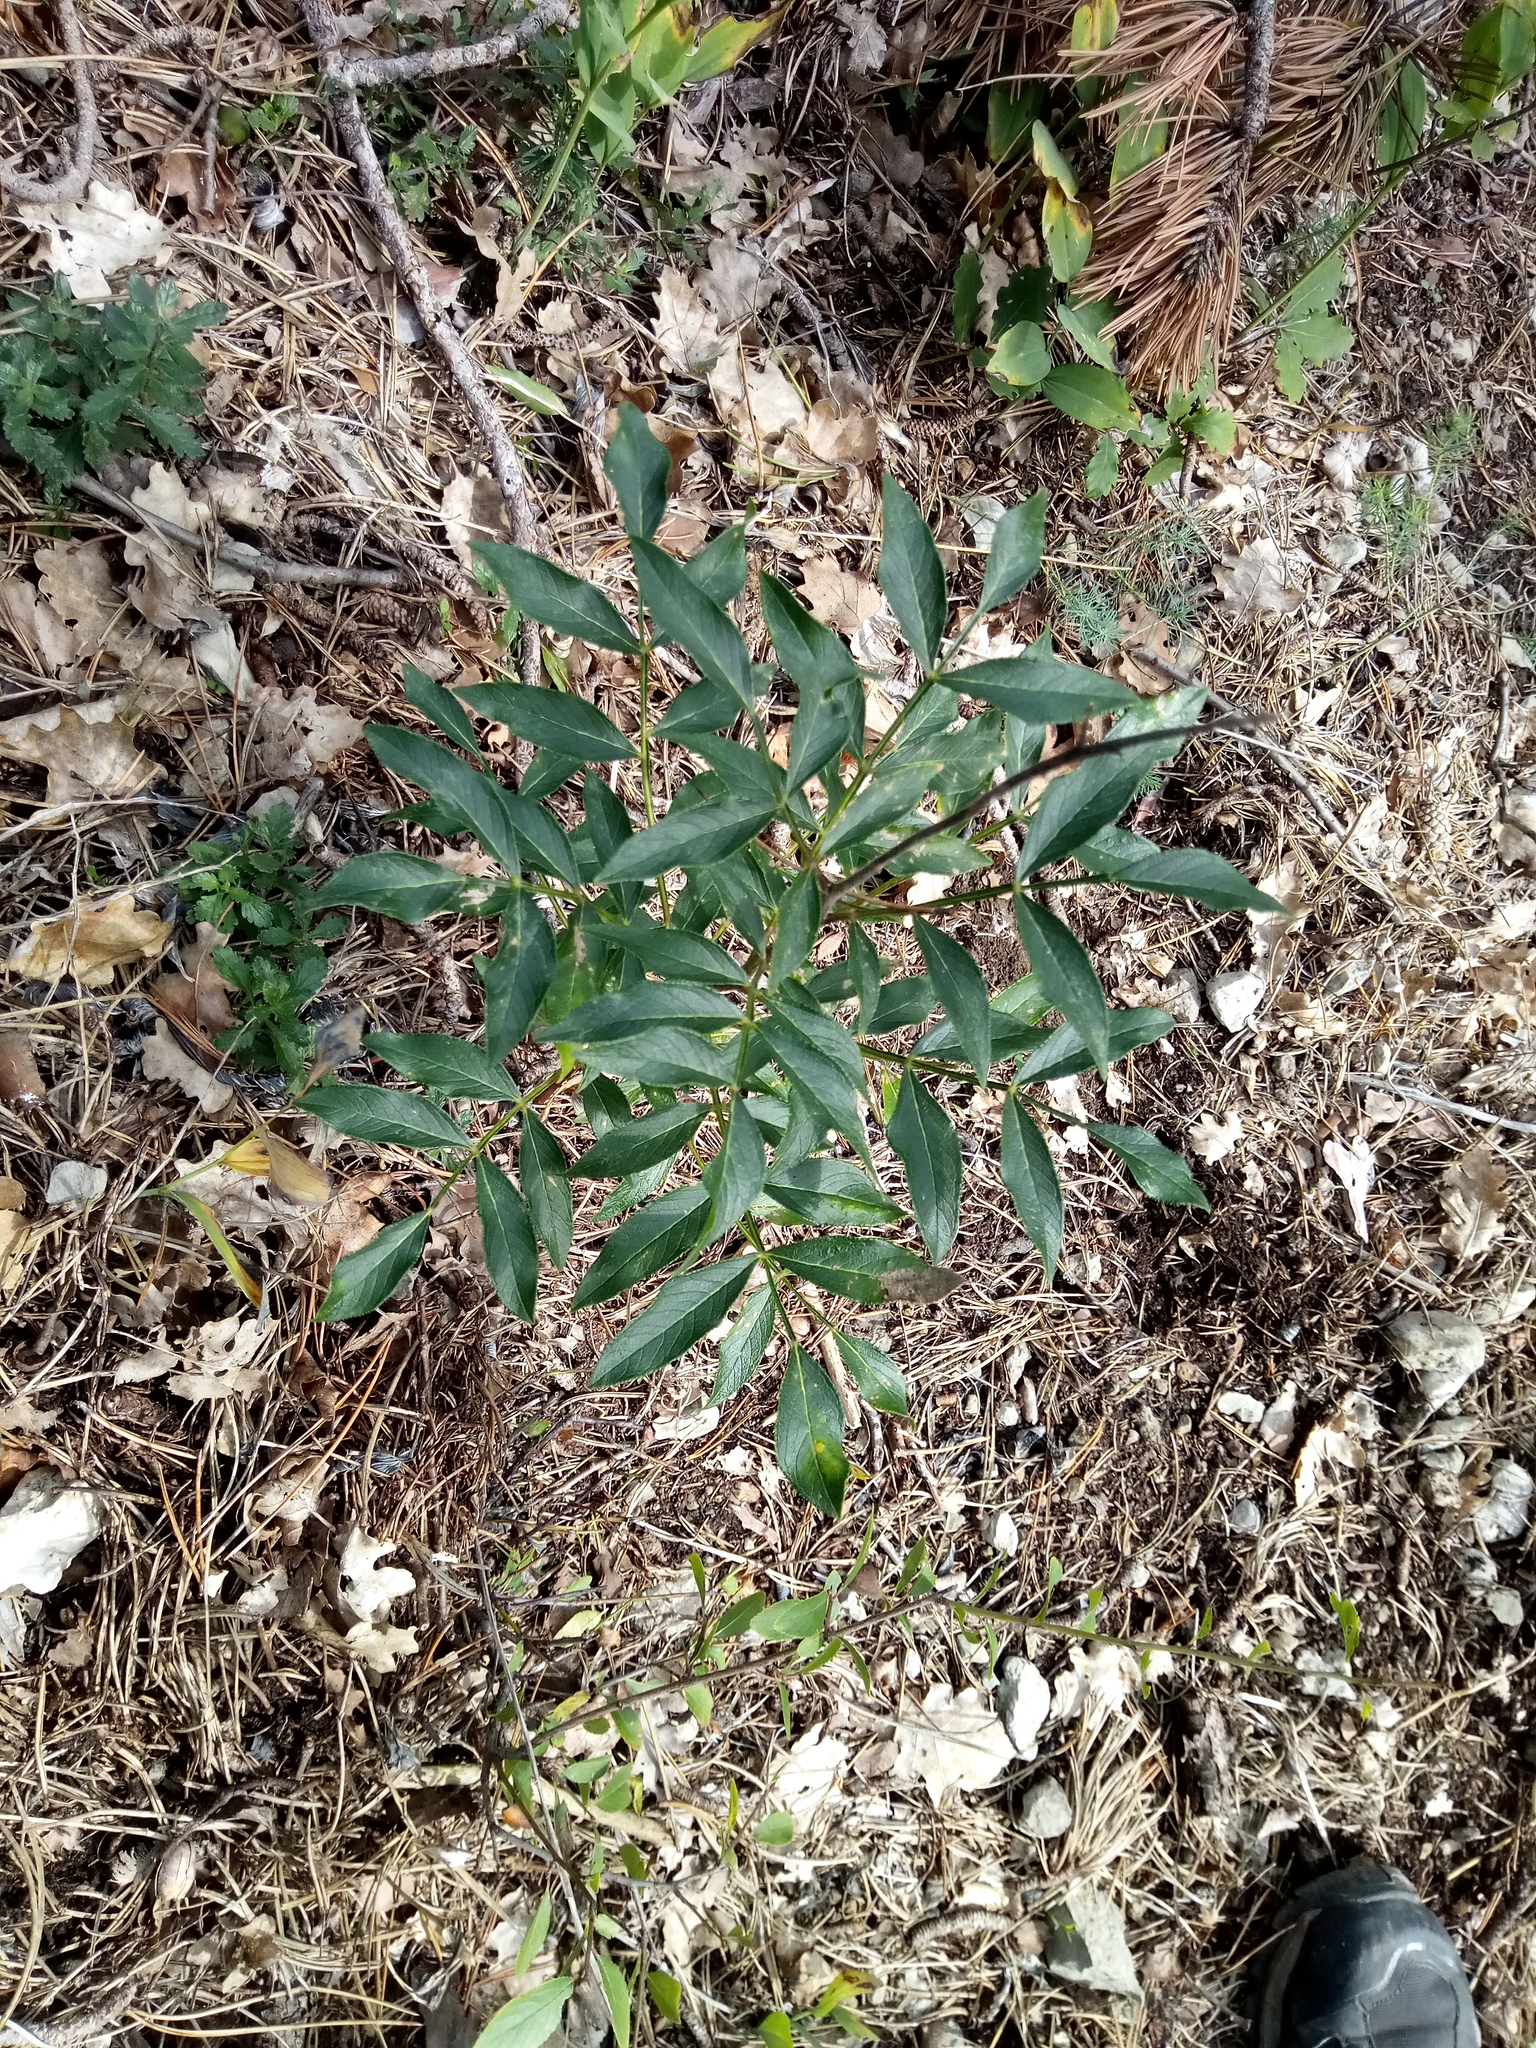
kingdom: Plantae
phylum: Tracheophyta
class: Magnoliopsida
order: Sapindales
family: Rutaceae
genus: Dictamnus
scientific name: Dictamnus albus
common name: Gasplant
